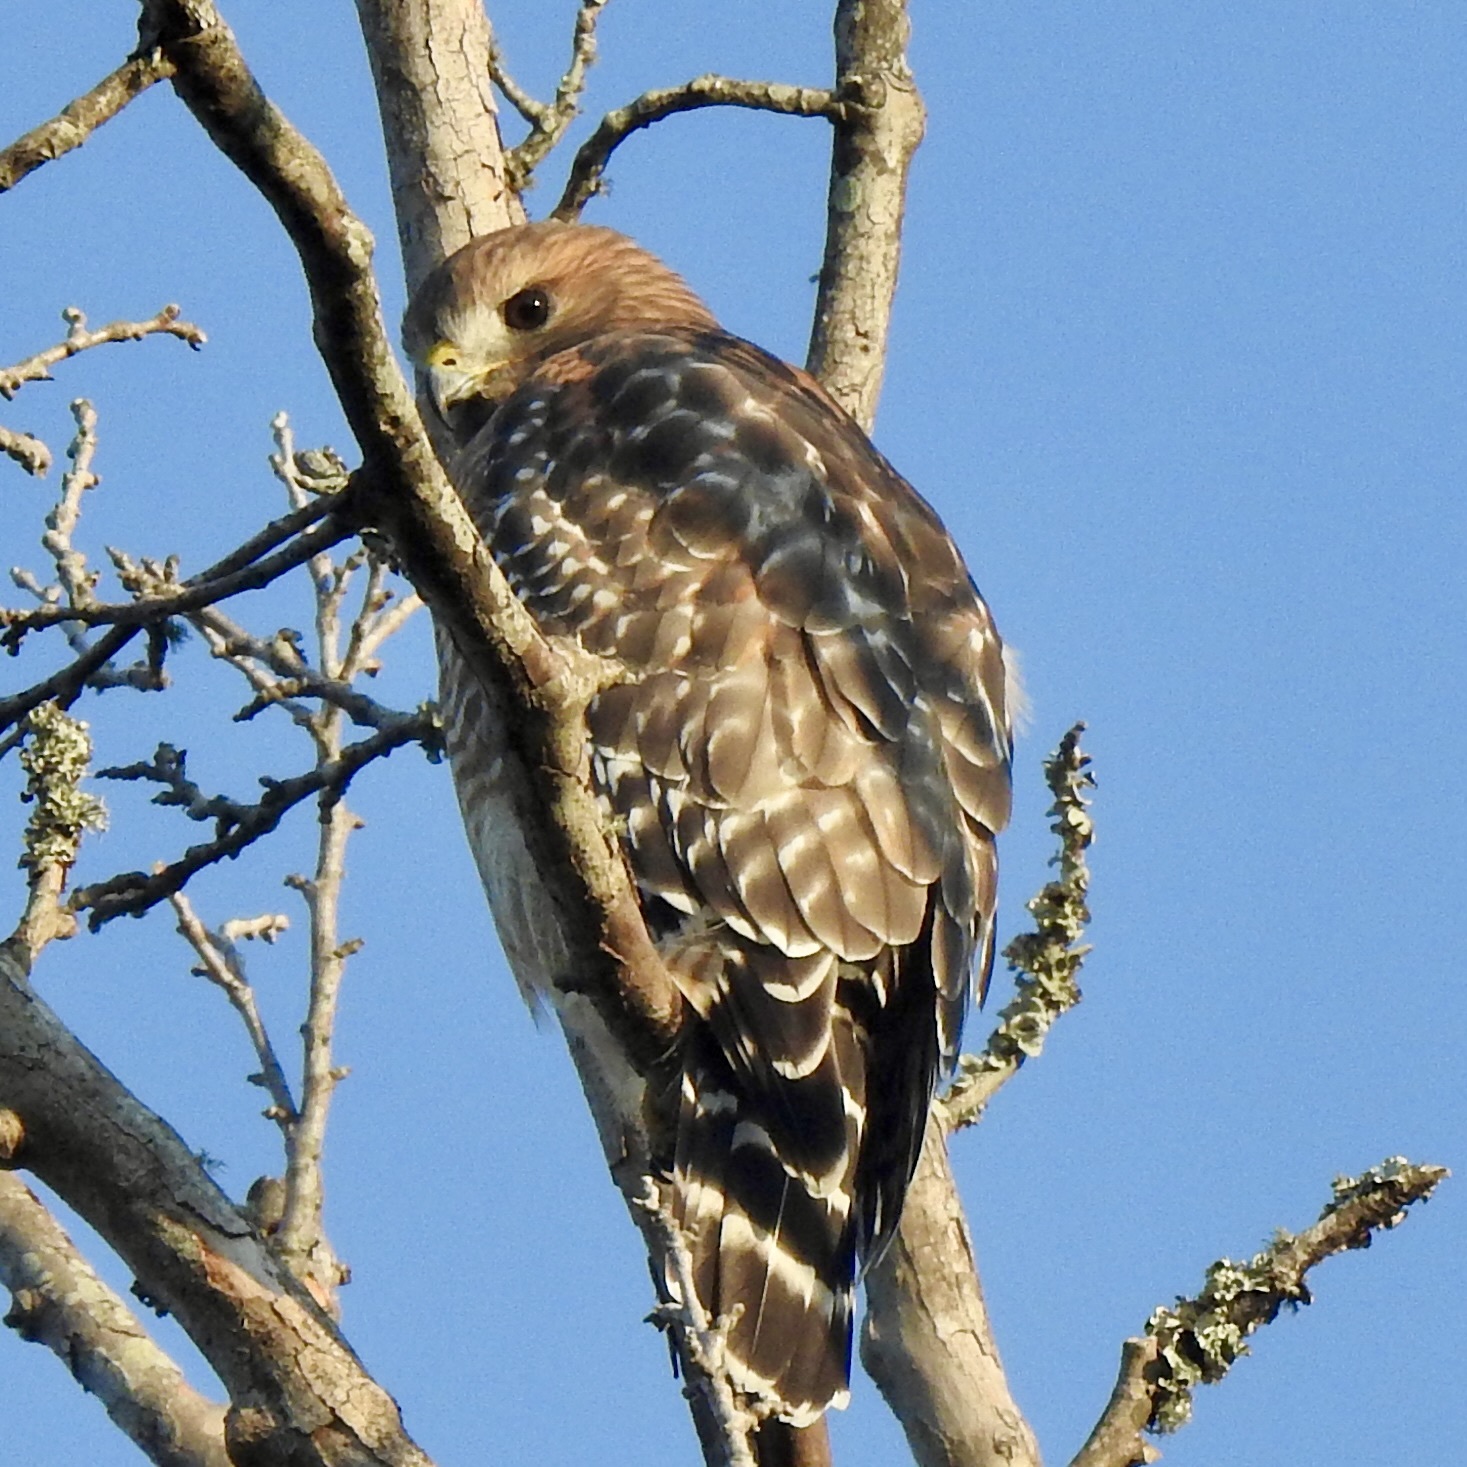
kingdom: Animalia
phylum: Chordata
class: Aves
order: Accipitriformes
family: Accipitridae
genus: Buteo
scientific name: Buteo lineatus
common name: Red-shouldered hawk
